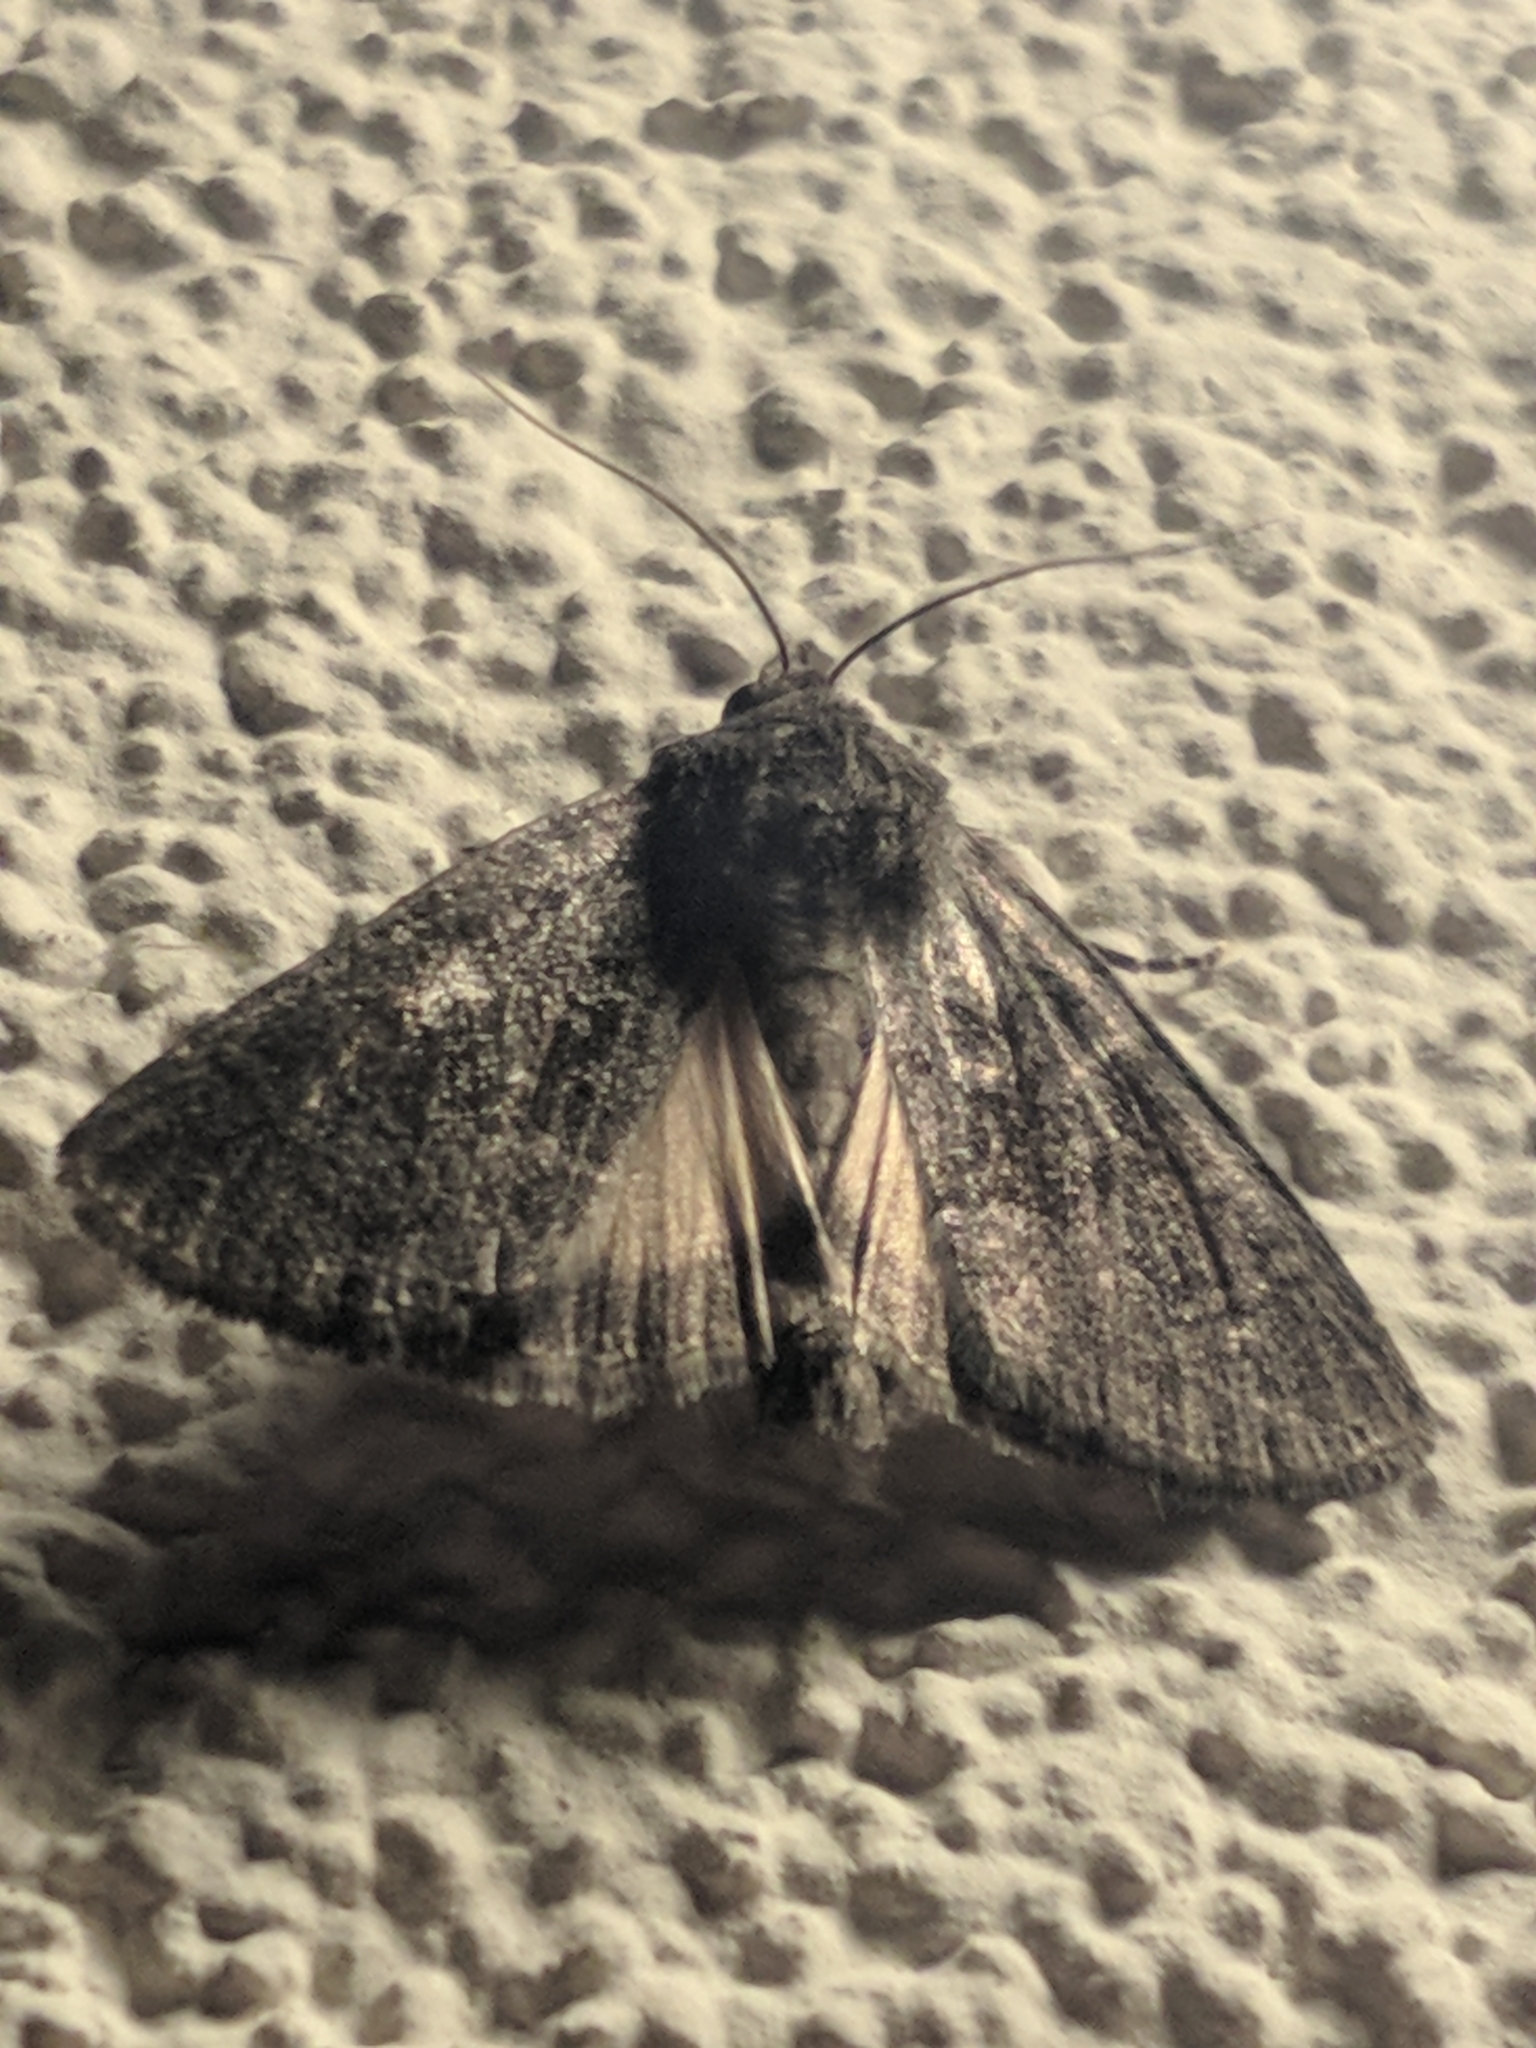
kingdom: Animalia
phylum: Arthropoda
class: Insecta
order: Lepidoptera
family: Noctuidae
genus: Thalpophila
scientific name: Thalpophila matura
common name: Straw underwing
